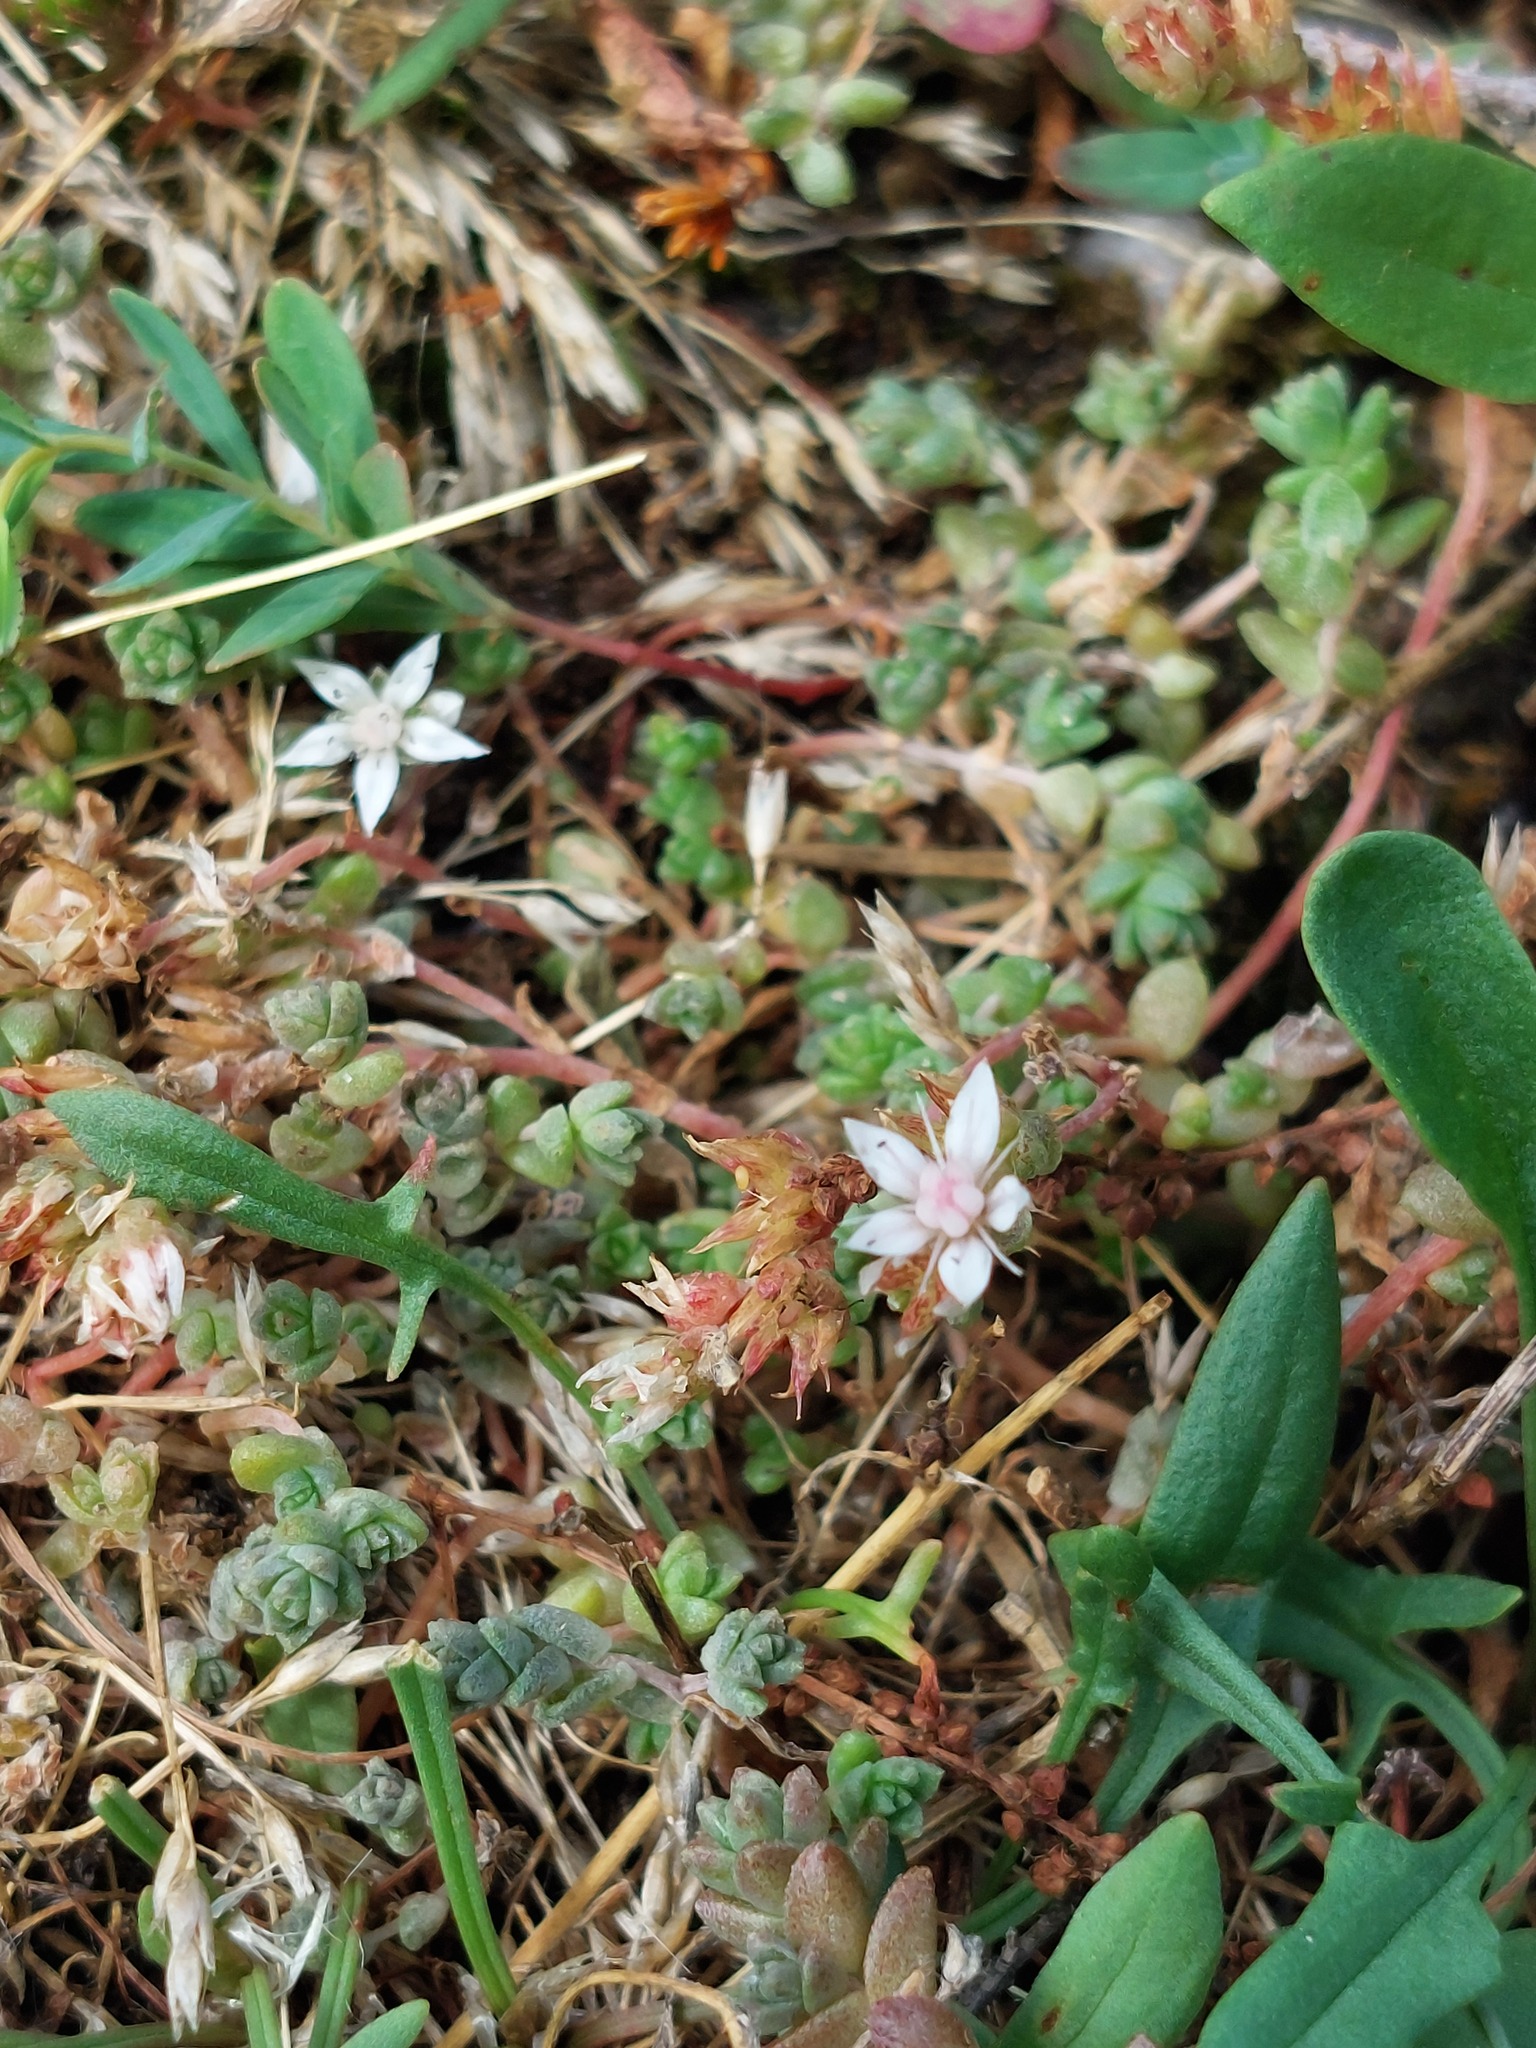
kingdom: Plantae
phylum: Tracheophyta
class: Magnoliopsida
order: Saxifragales
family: Crassulaceae
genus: Sedum
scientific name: Sedum anglicum
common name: English stonecrop
